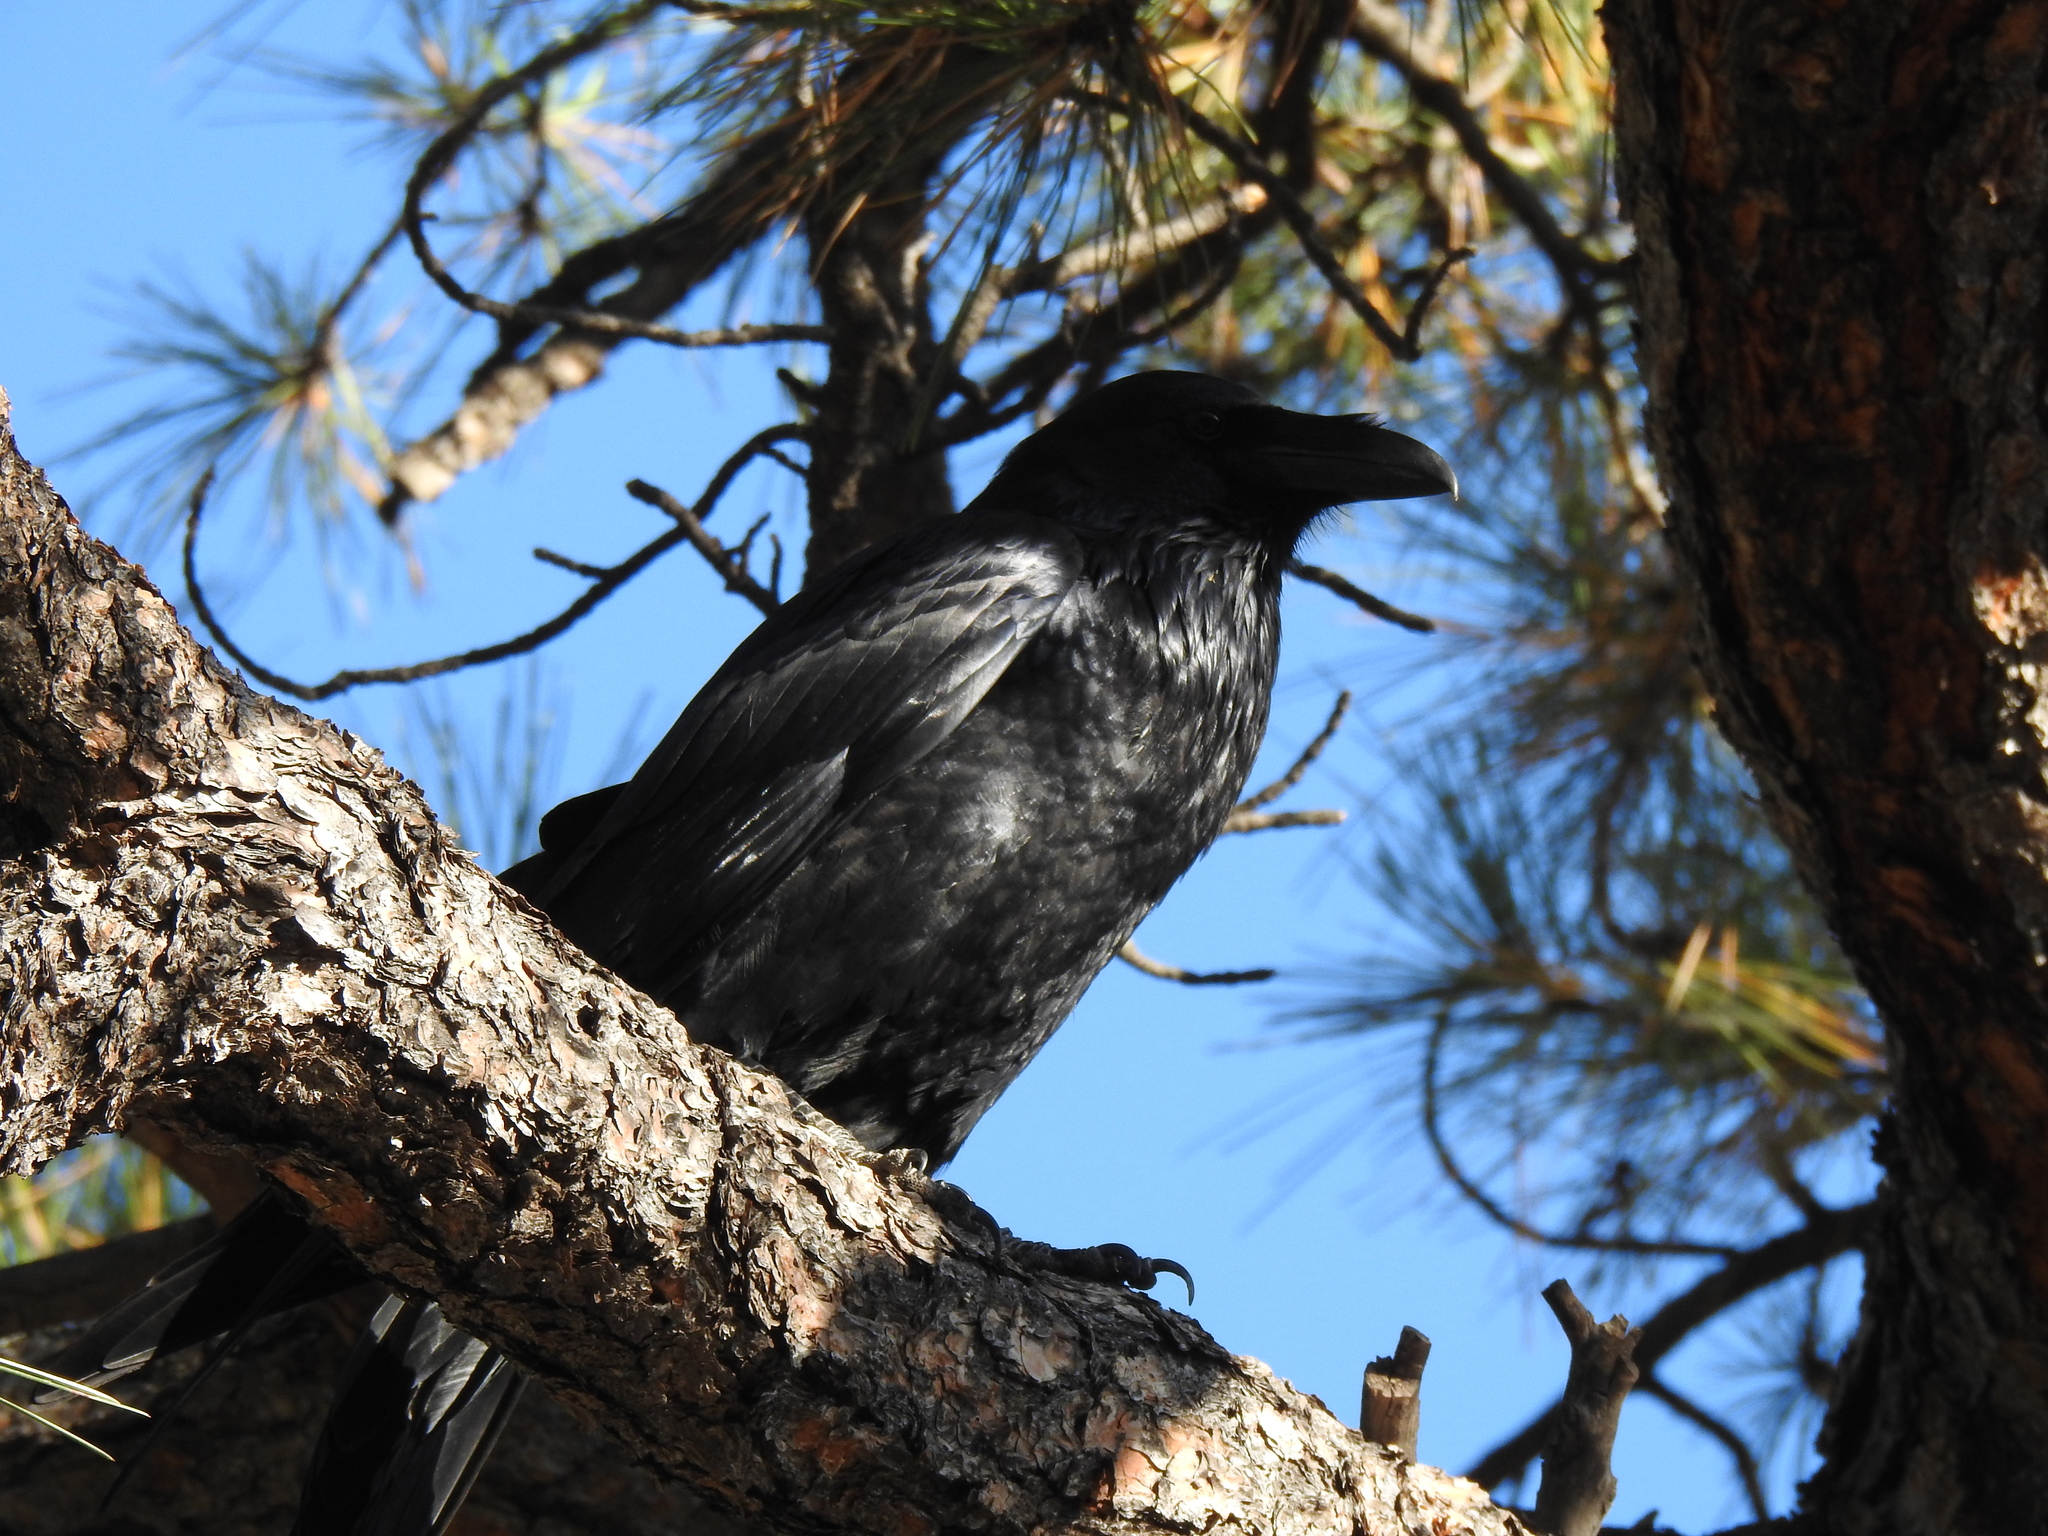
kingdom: Animalia
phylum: Chordata
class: Aves
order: Passeriformes
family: Corvidae
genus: Corvus
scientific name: Corvus corax
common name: Common raven
